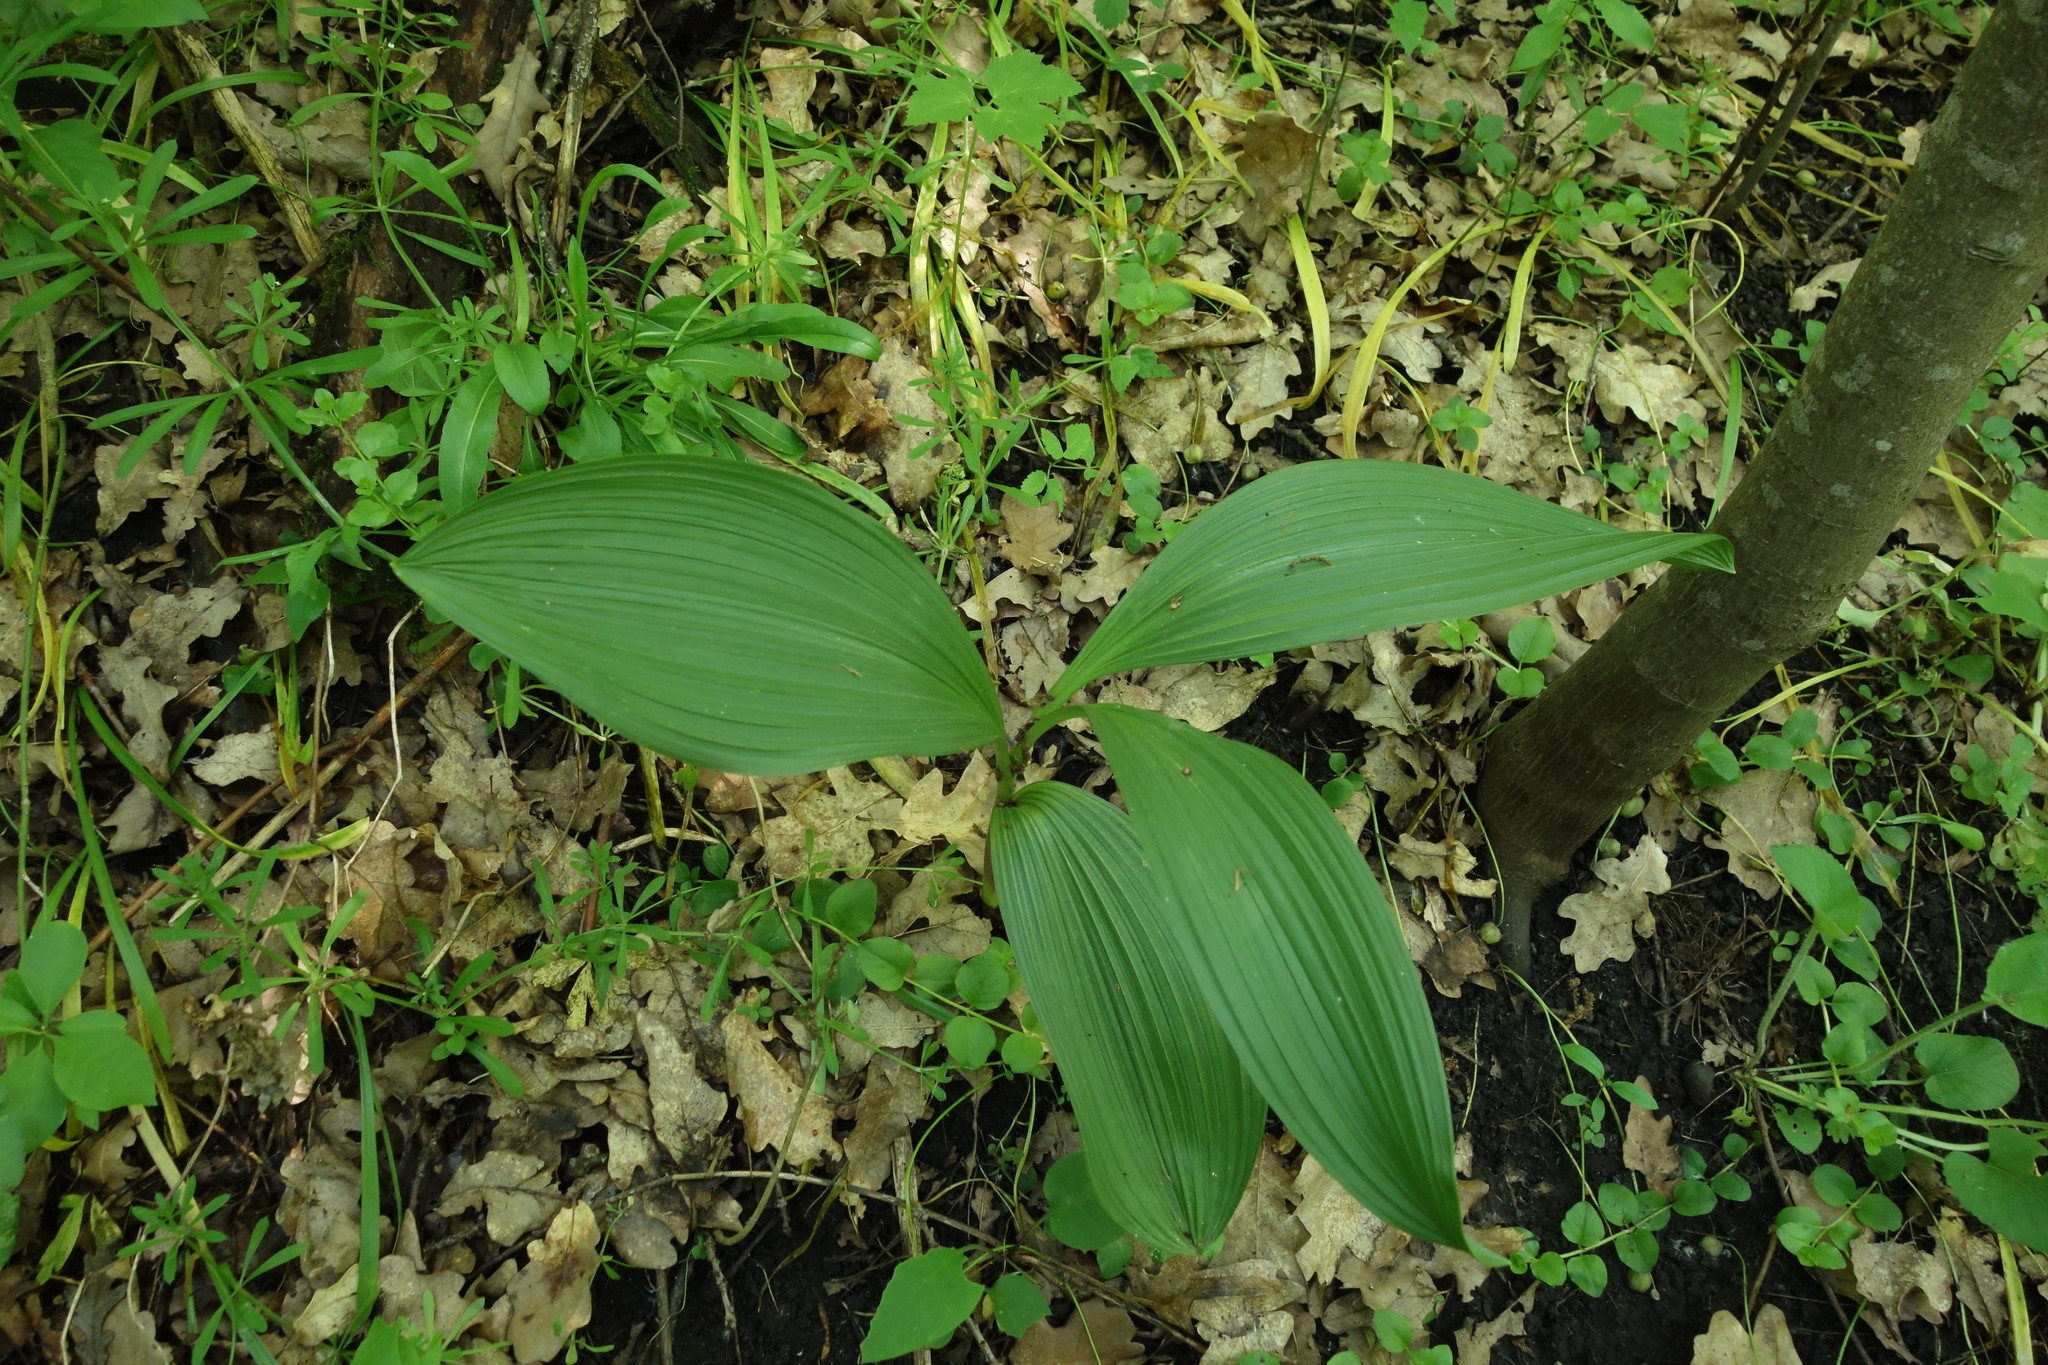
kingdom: Plantae
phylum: Tracheophyta
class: Liliopsida
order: Liliales
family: Melanthiaceae
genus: Veratrum
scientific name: Veratrum nigrum
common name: Black veratrum
